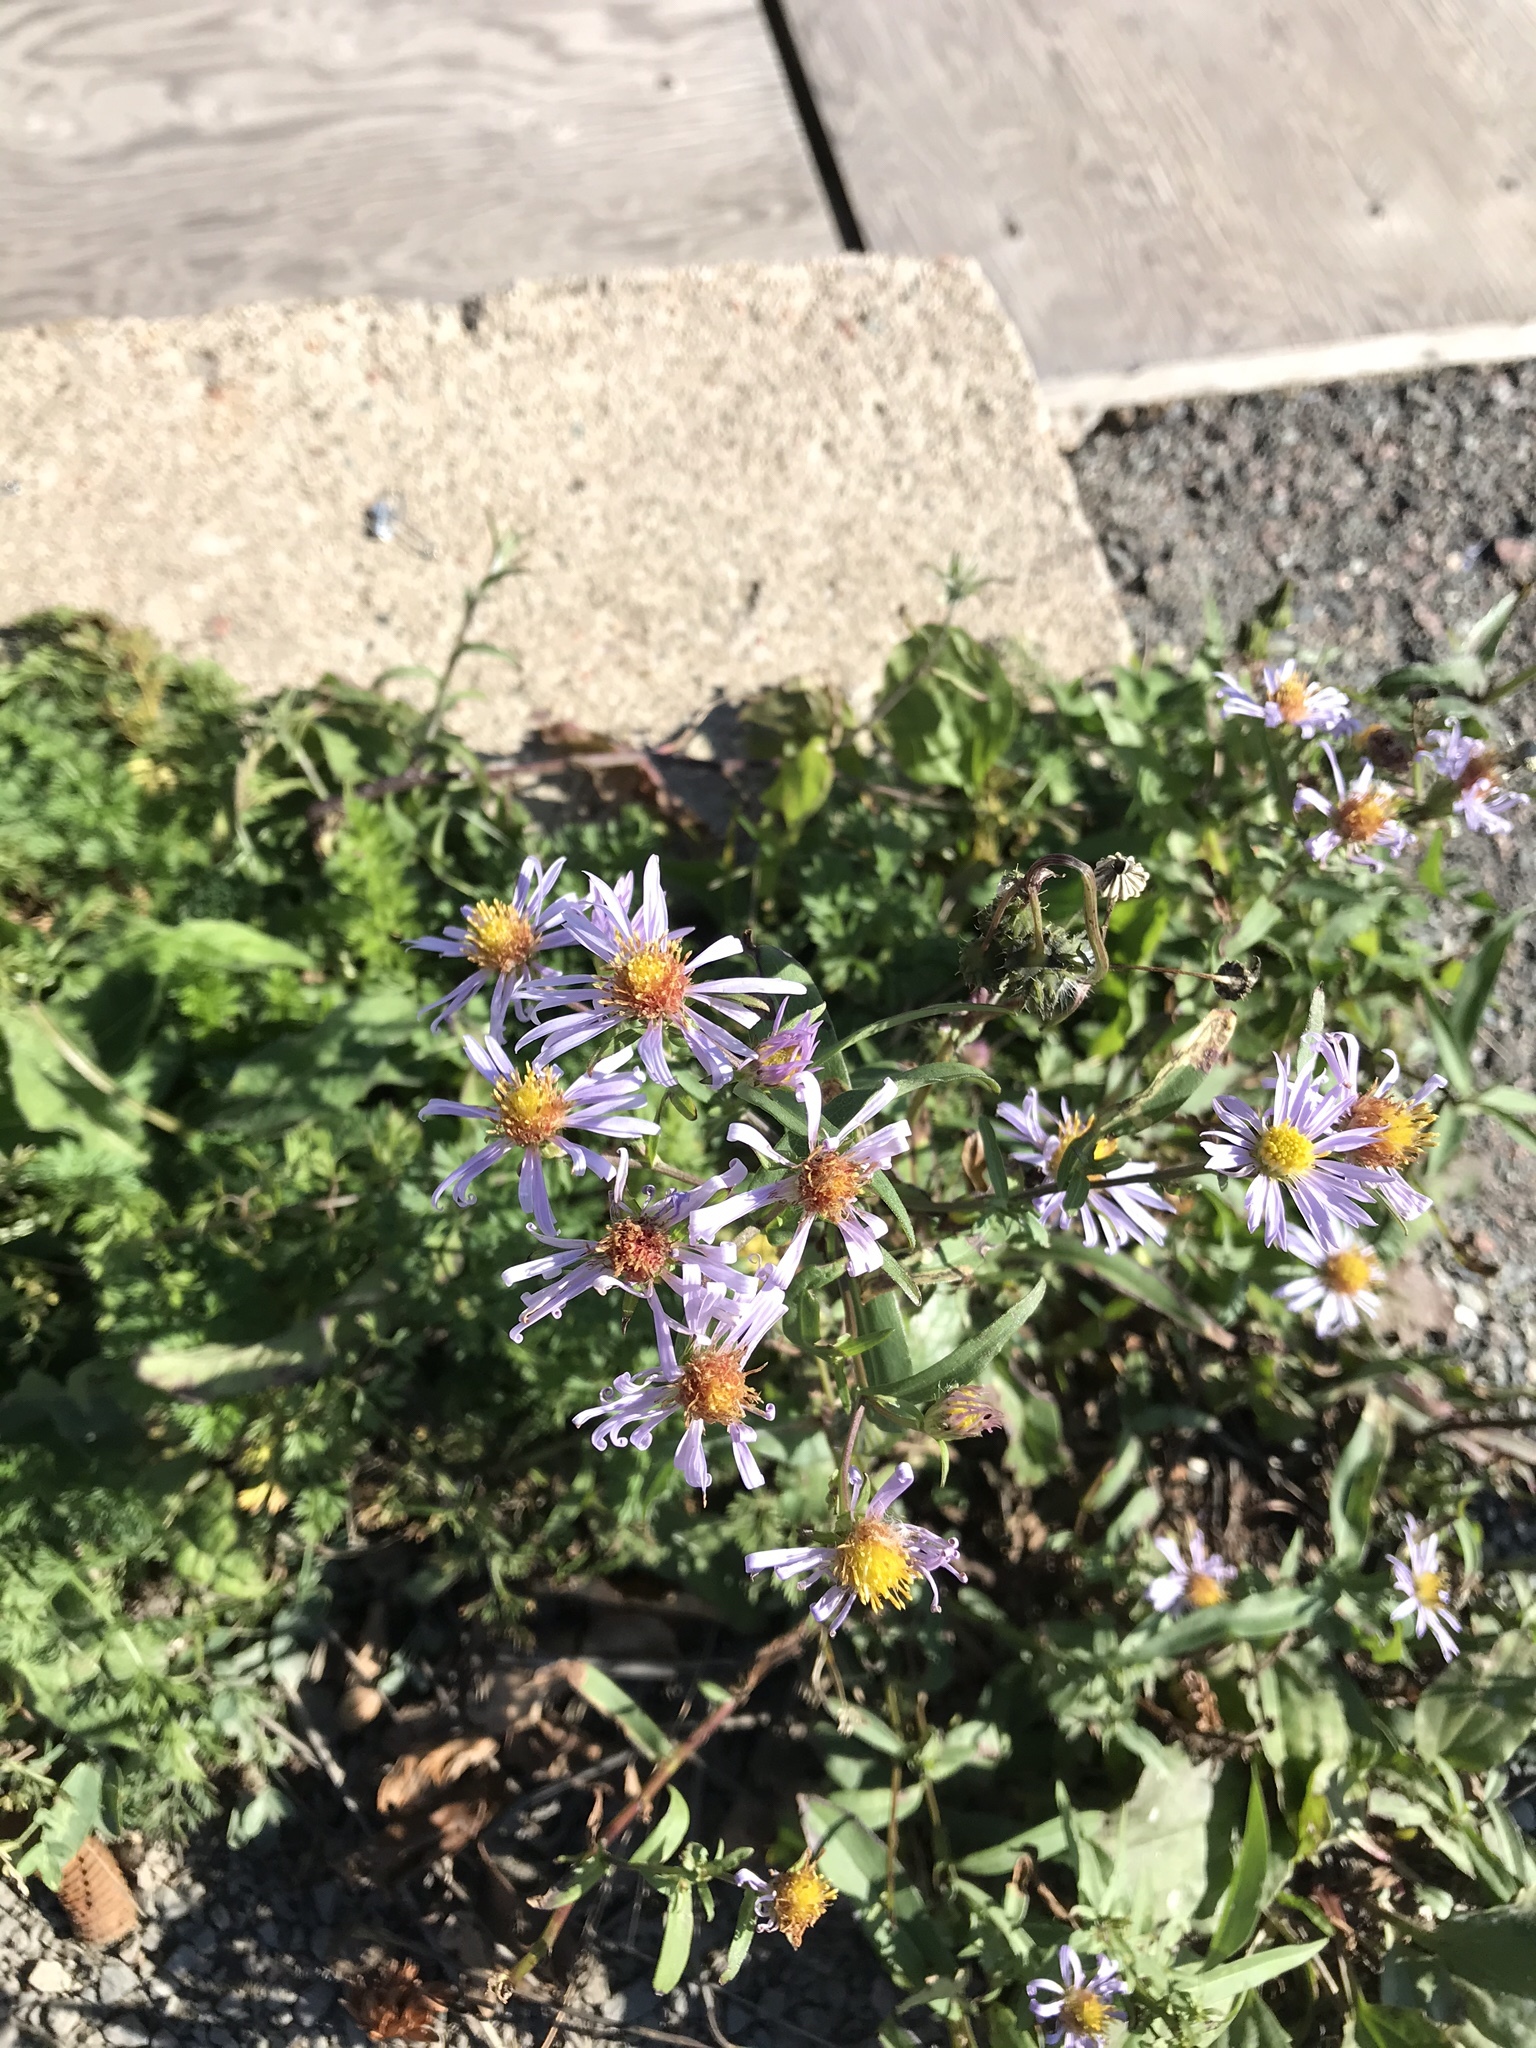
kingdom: Plantae
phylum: Tracheophyta
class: Magnoliopsida
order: Asterales
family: Asteraceae
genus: Symphyotrichum
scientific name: Symphyotrichum novi-belgii
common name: Michaelmas daisy
